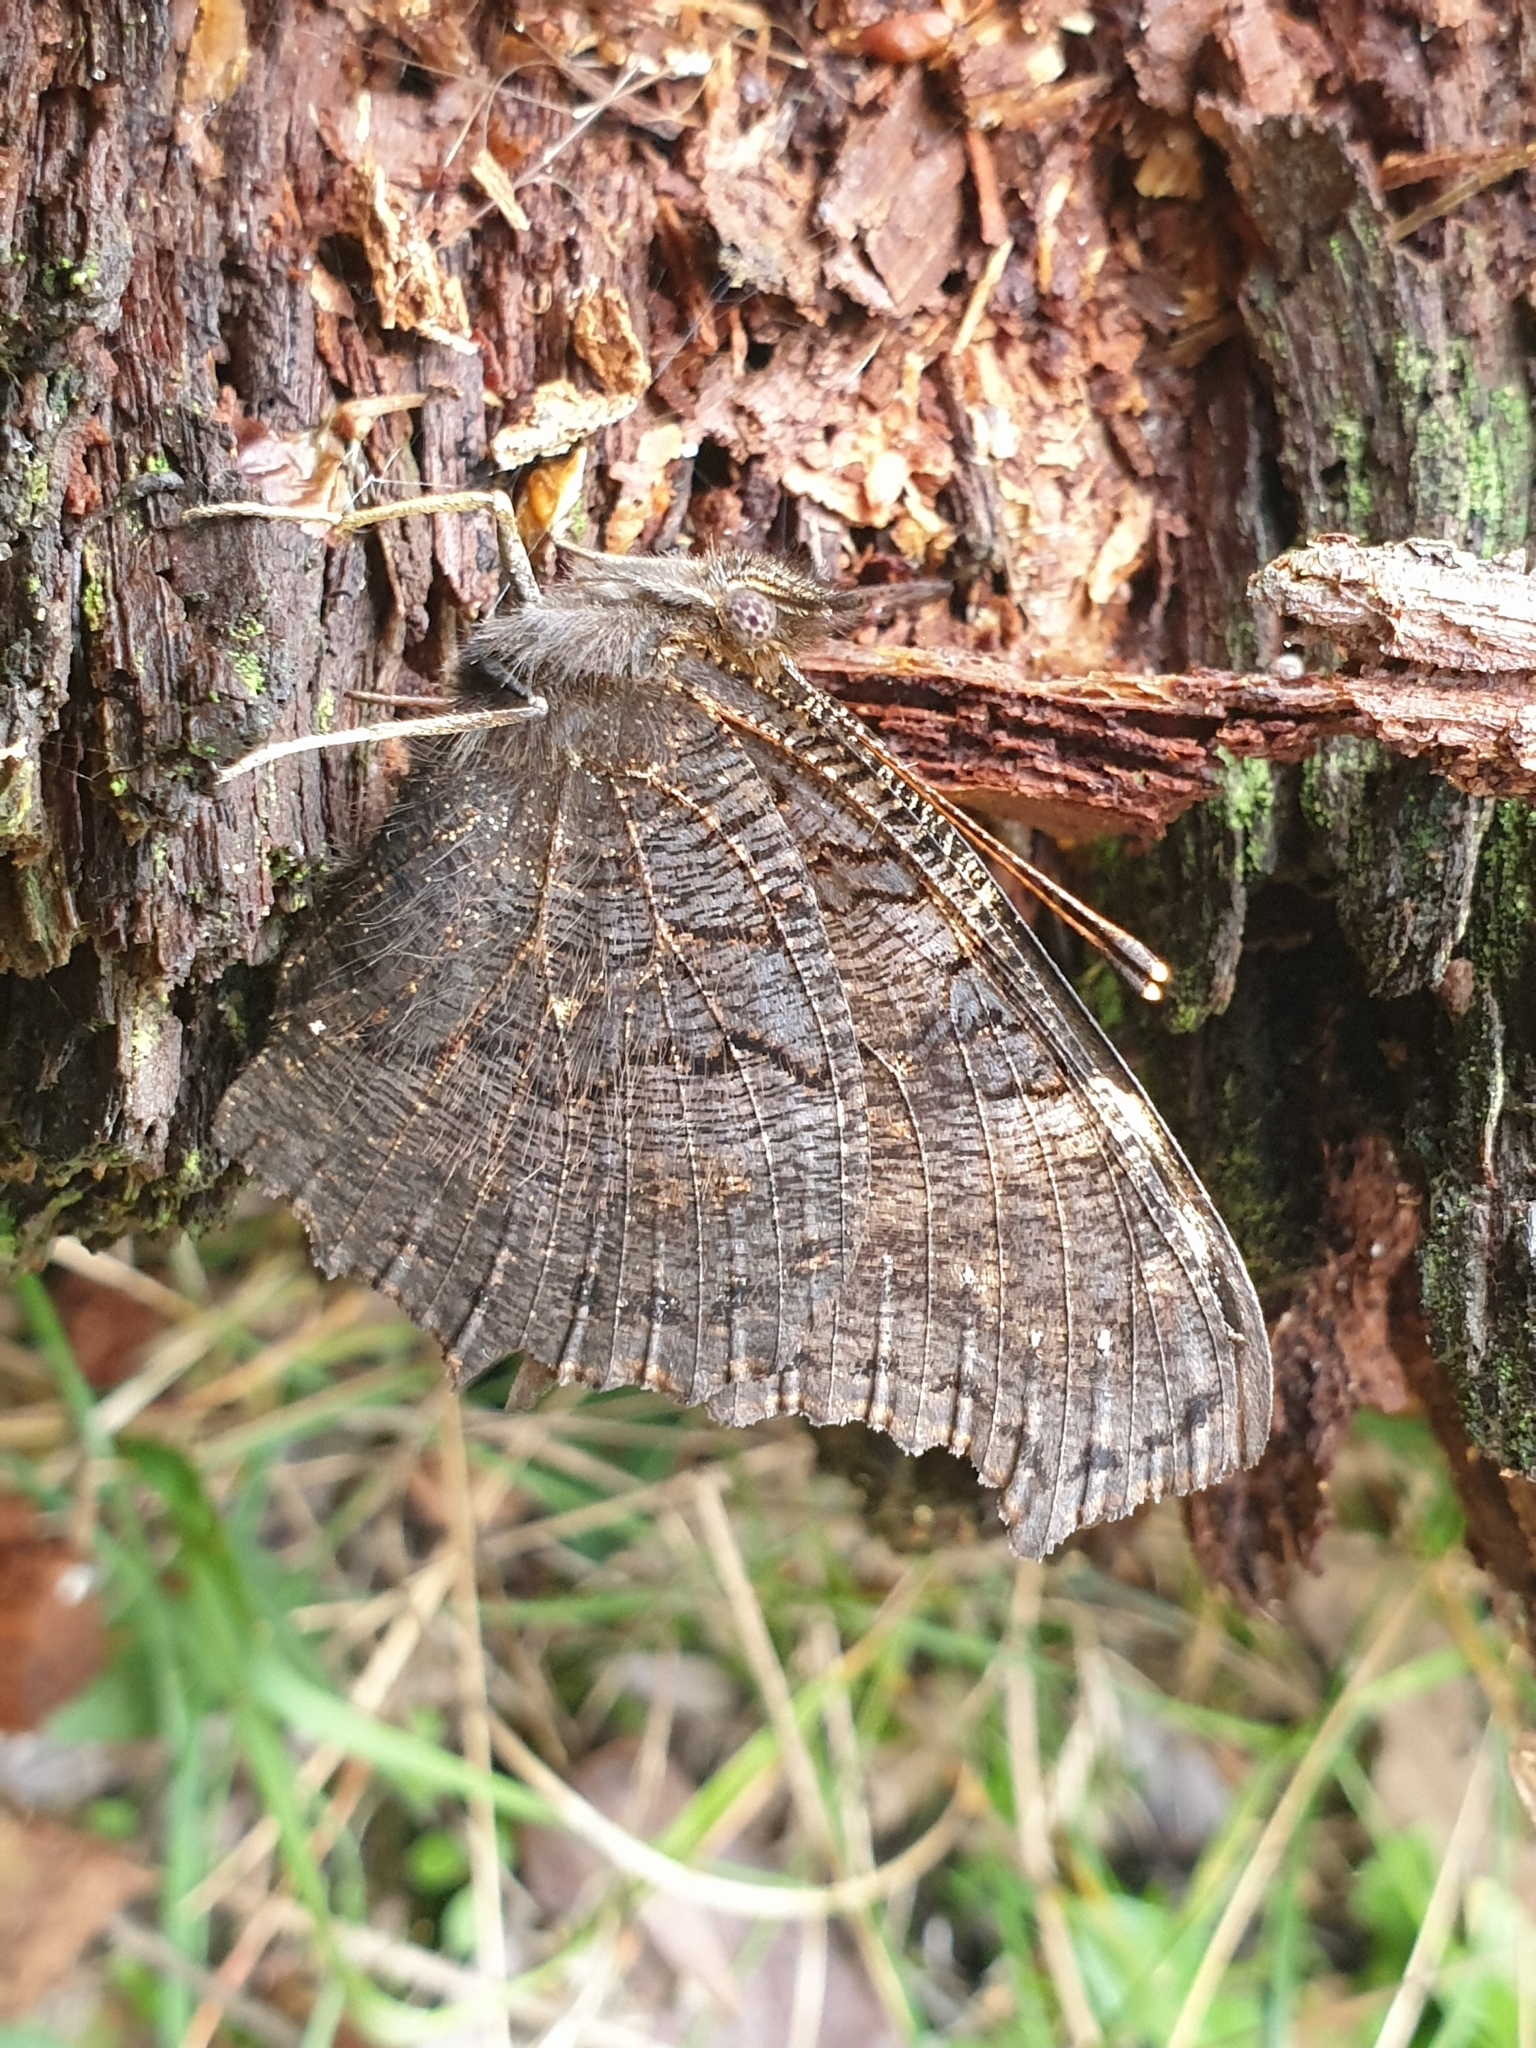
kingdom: Animalia
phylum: Arthropoda
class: Insecta
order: Lepidoptera
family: Nymphalidae
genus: Aglais
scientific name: Aglais io
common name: Peacock
